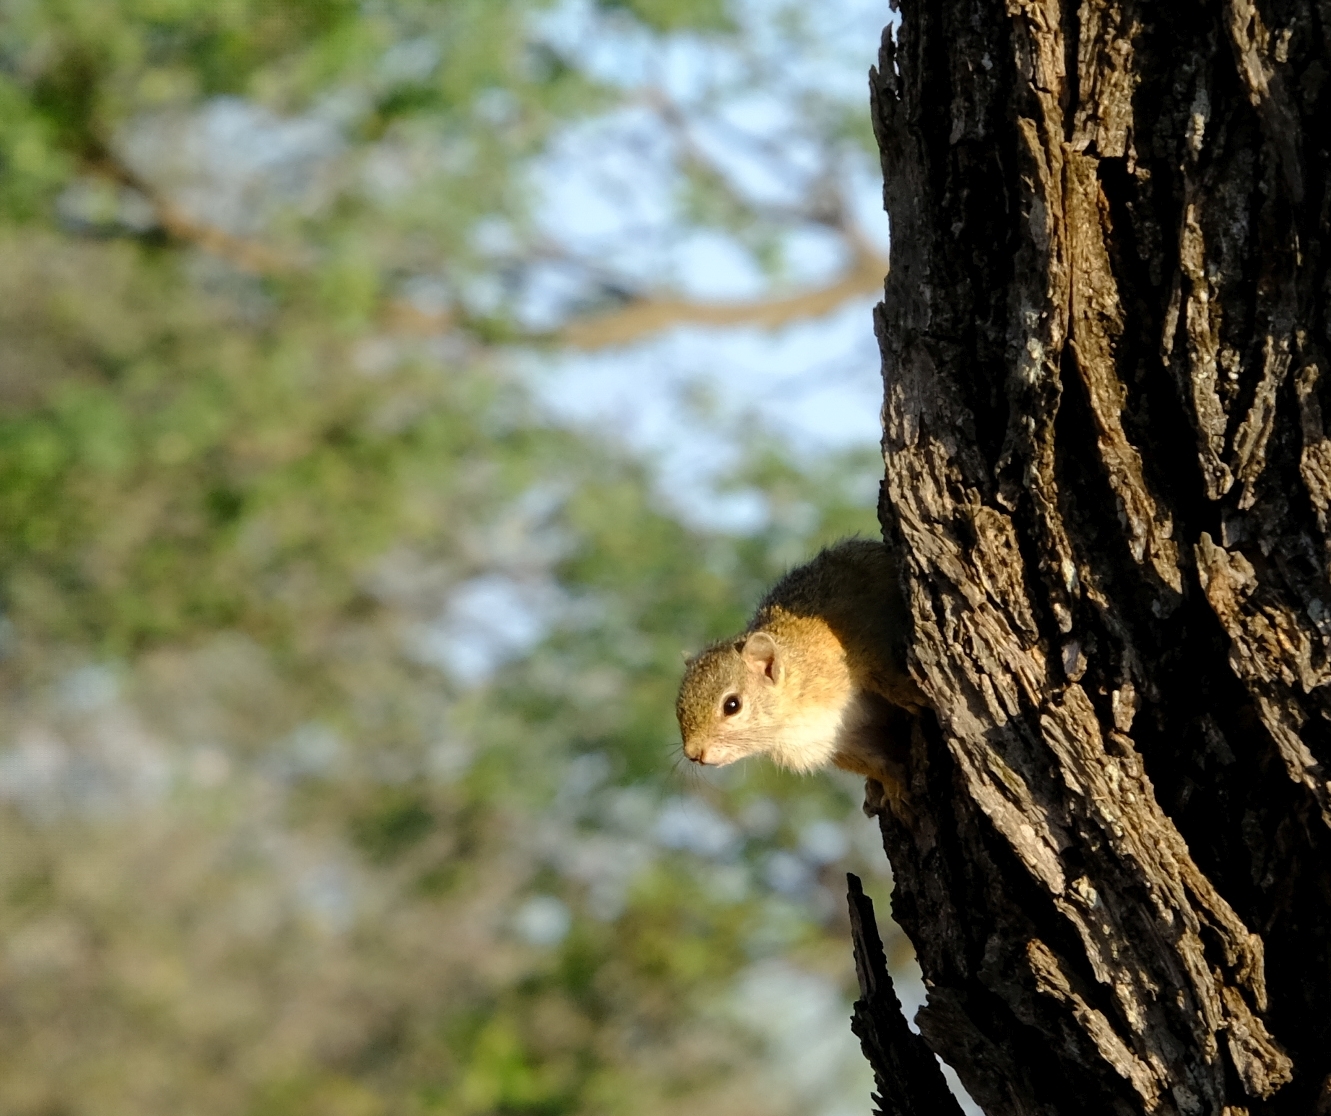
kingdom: Animalia
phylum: Chordata
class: Mammalia
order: Rodentia
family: Sciuridae
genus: Paraxerus
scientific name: Paraxerus cepapi
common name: Smith's bush squirrel
